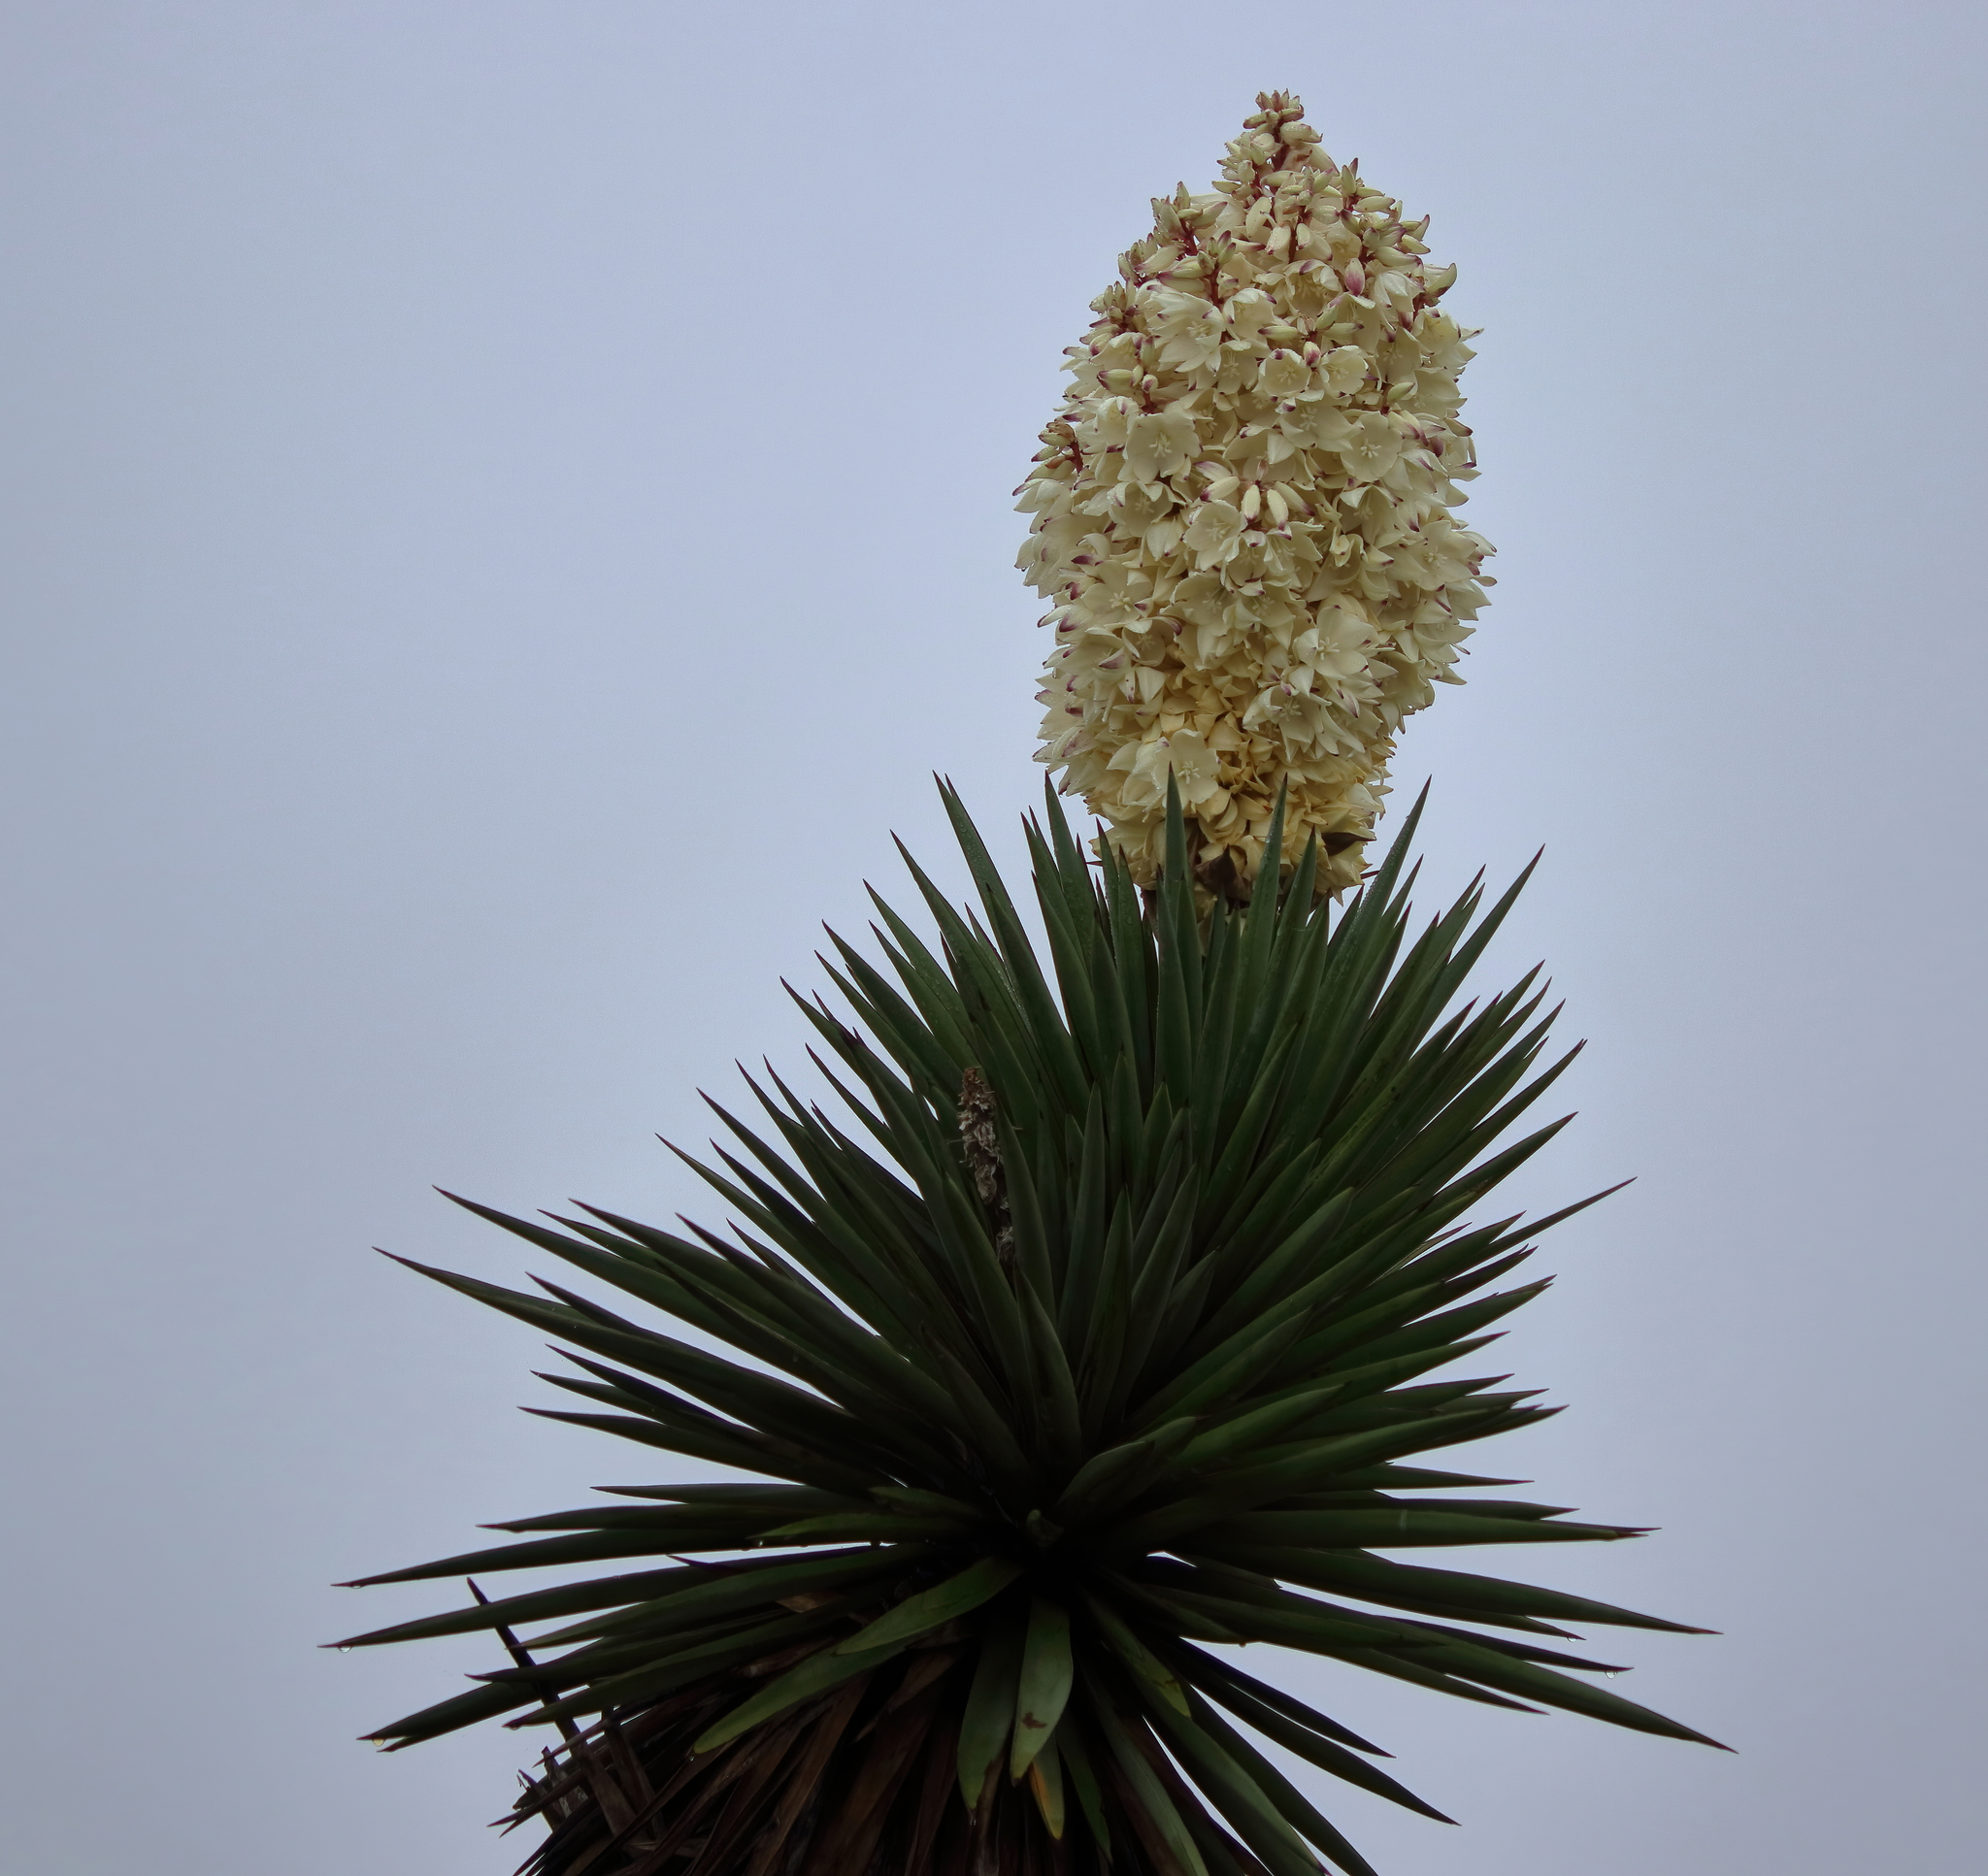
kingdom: Plantae
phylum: Tracheophyta
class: Liliopsida
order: Asparagales
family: Asparagaceae
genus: Yucca
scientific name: Yucca treculiana
